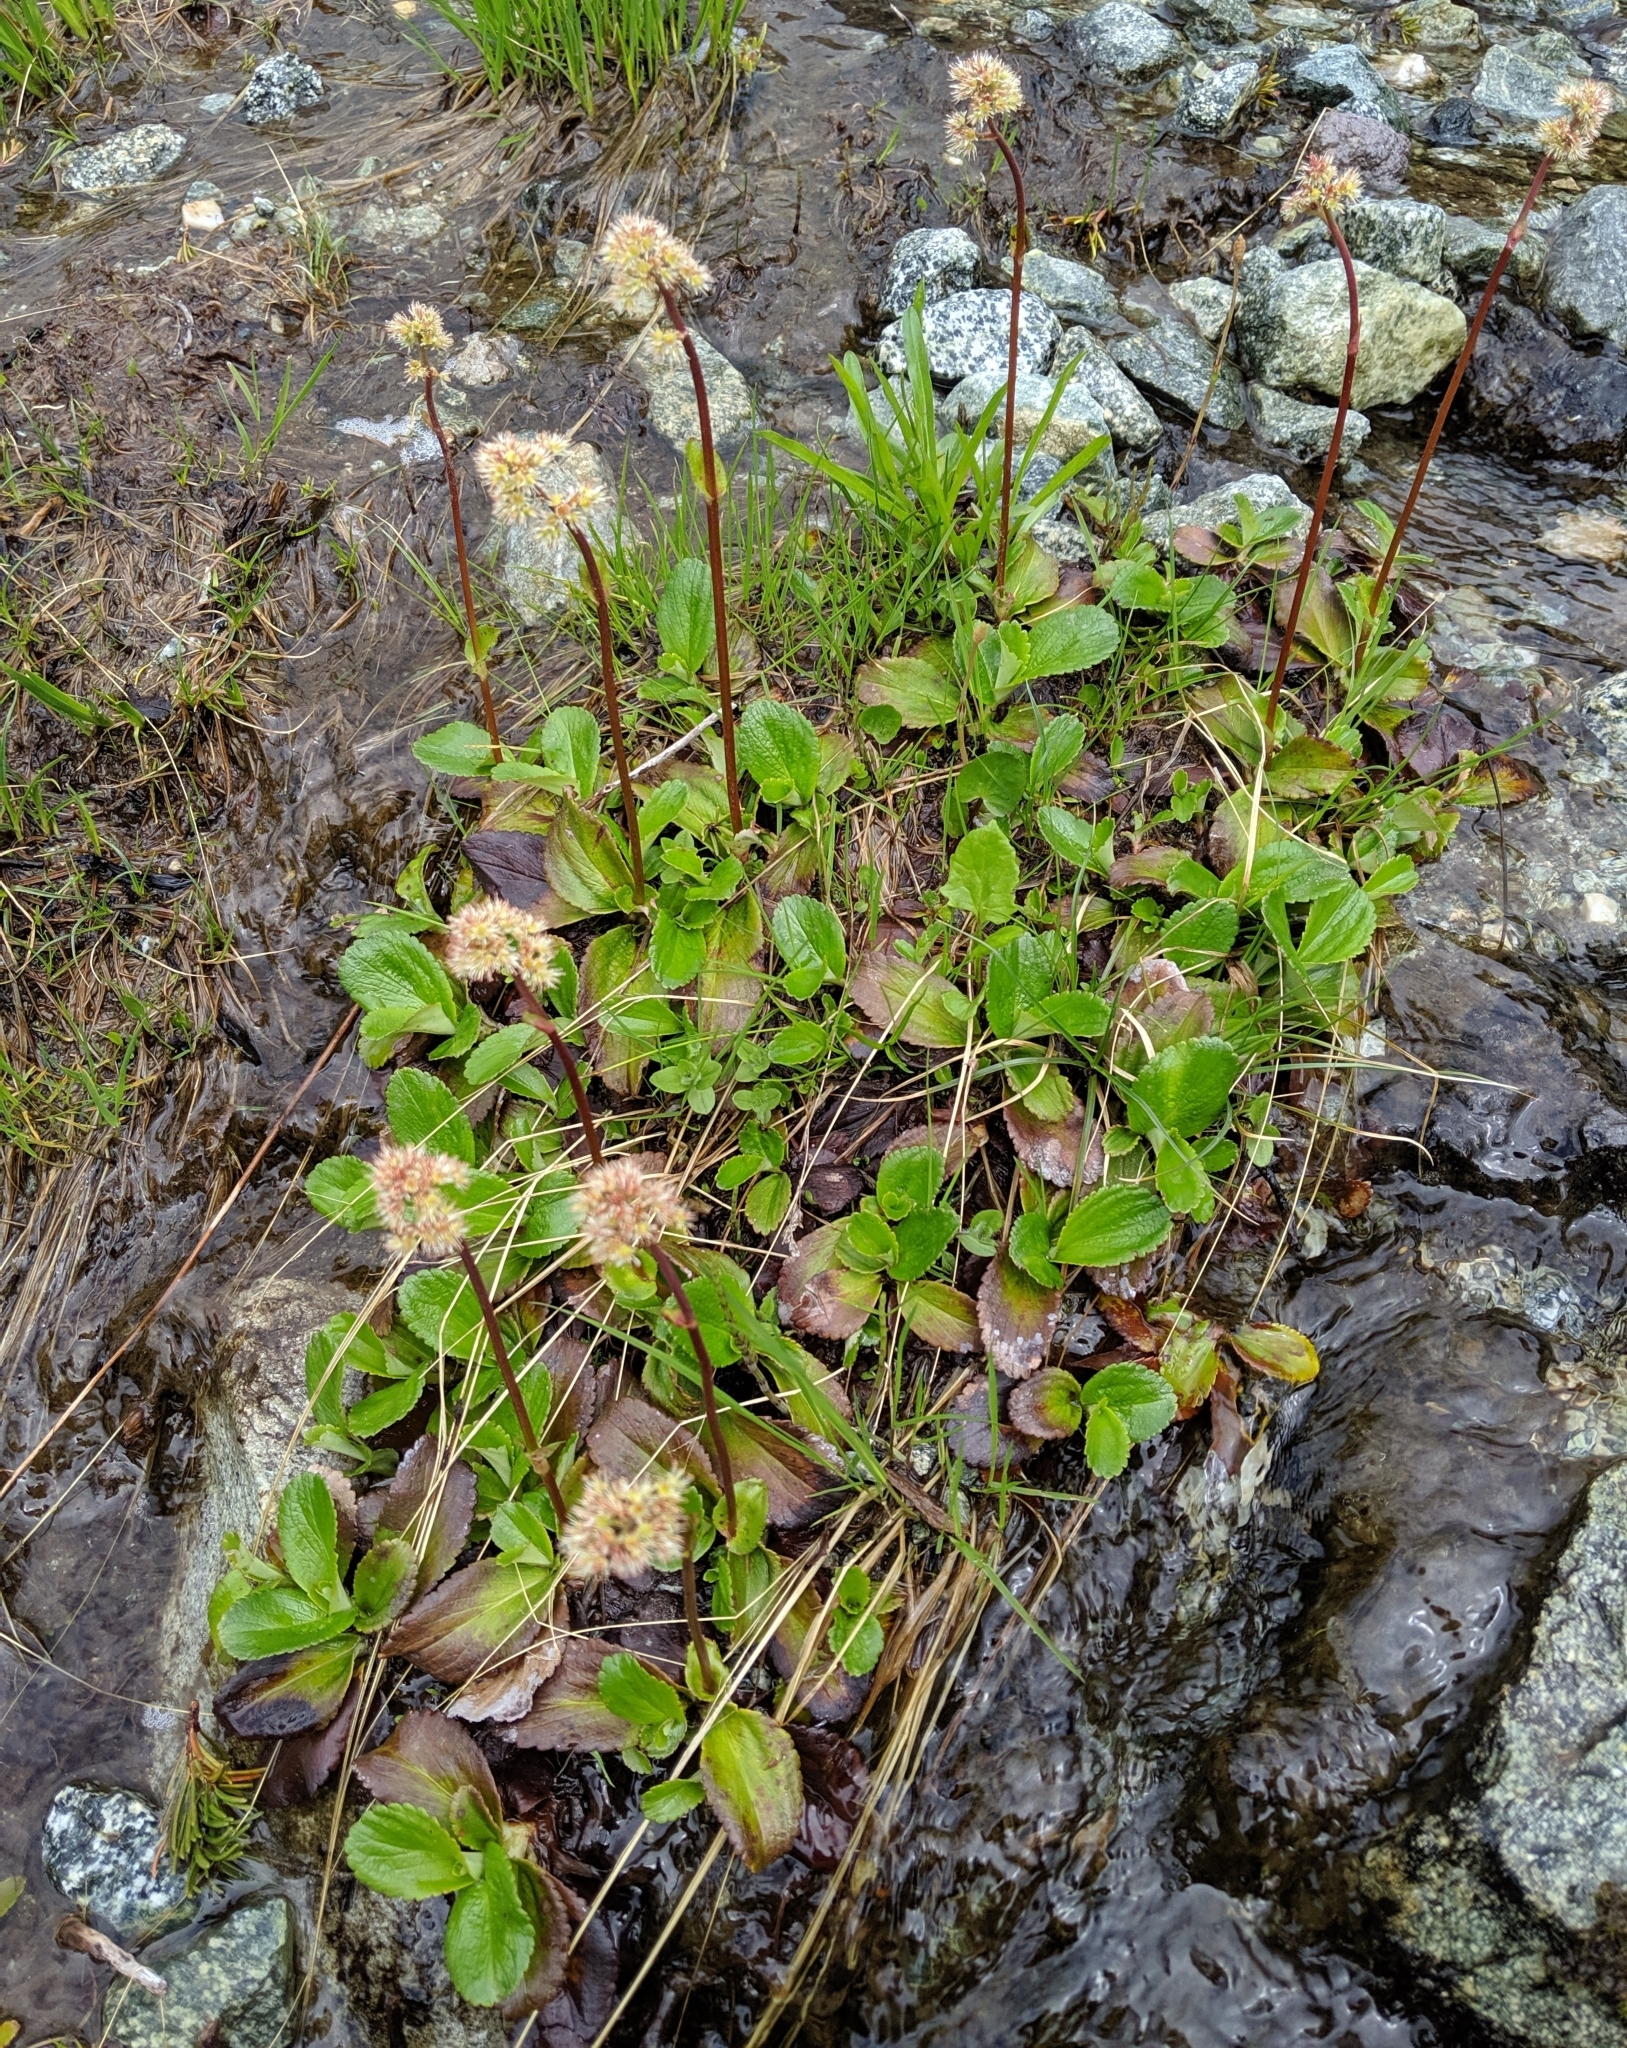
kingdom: Plantae
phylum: Tracheophyta
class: Magnoliopsida
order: Saxifragales
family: Saxifragaceae
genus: Leptarrhena
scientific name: Leptarrhena pyrolifolia
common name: Leatherleaf-saxifrage
